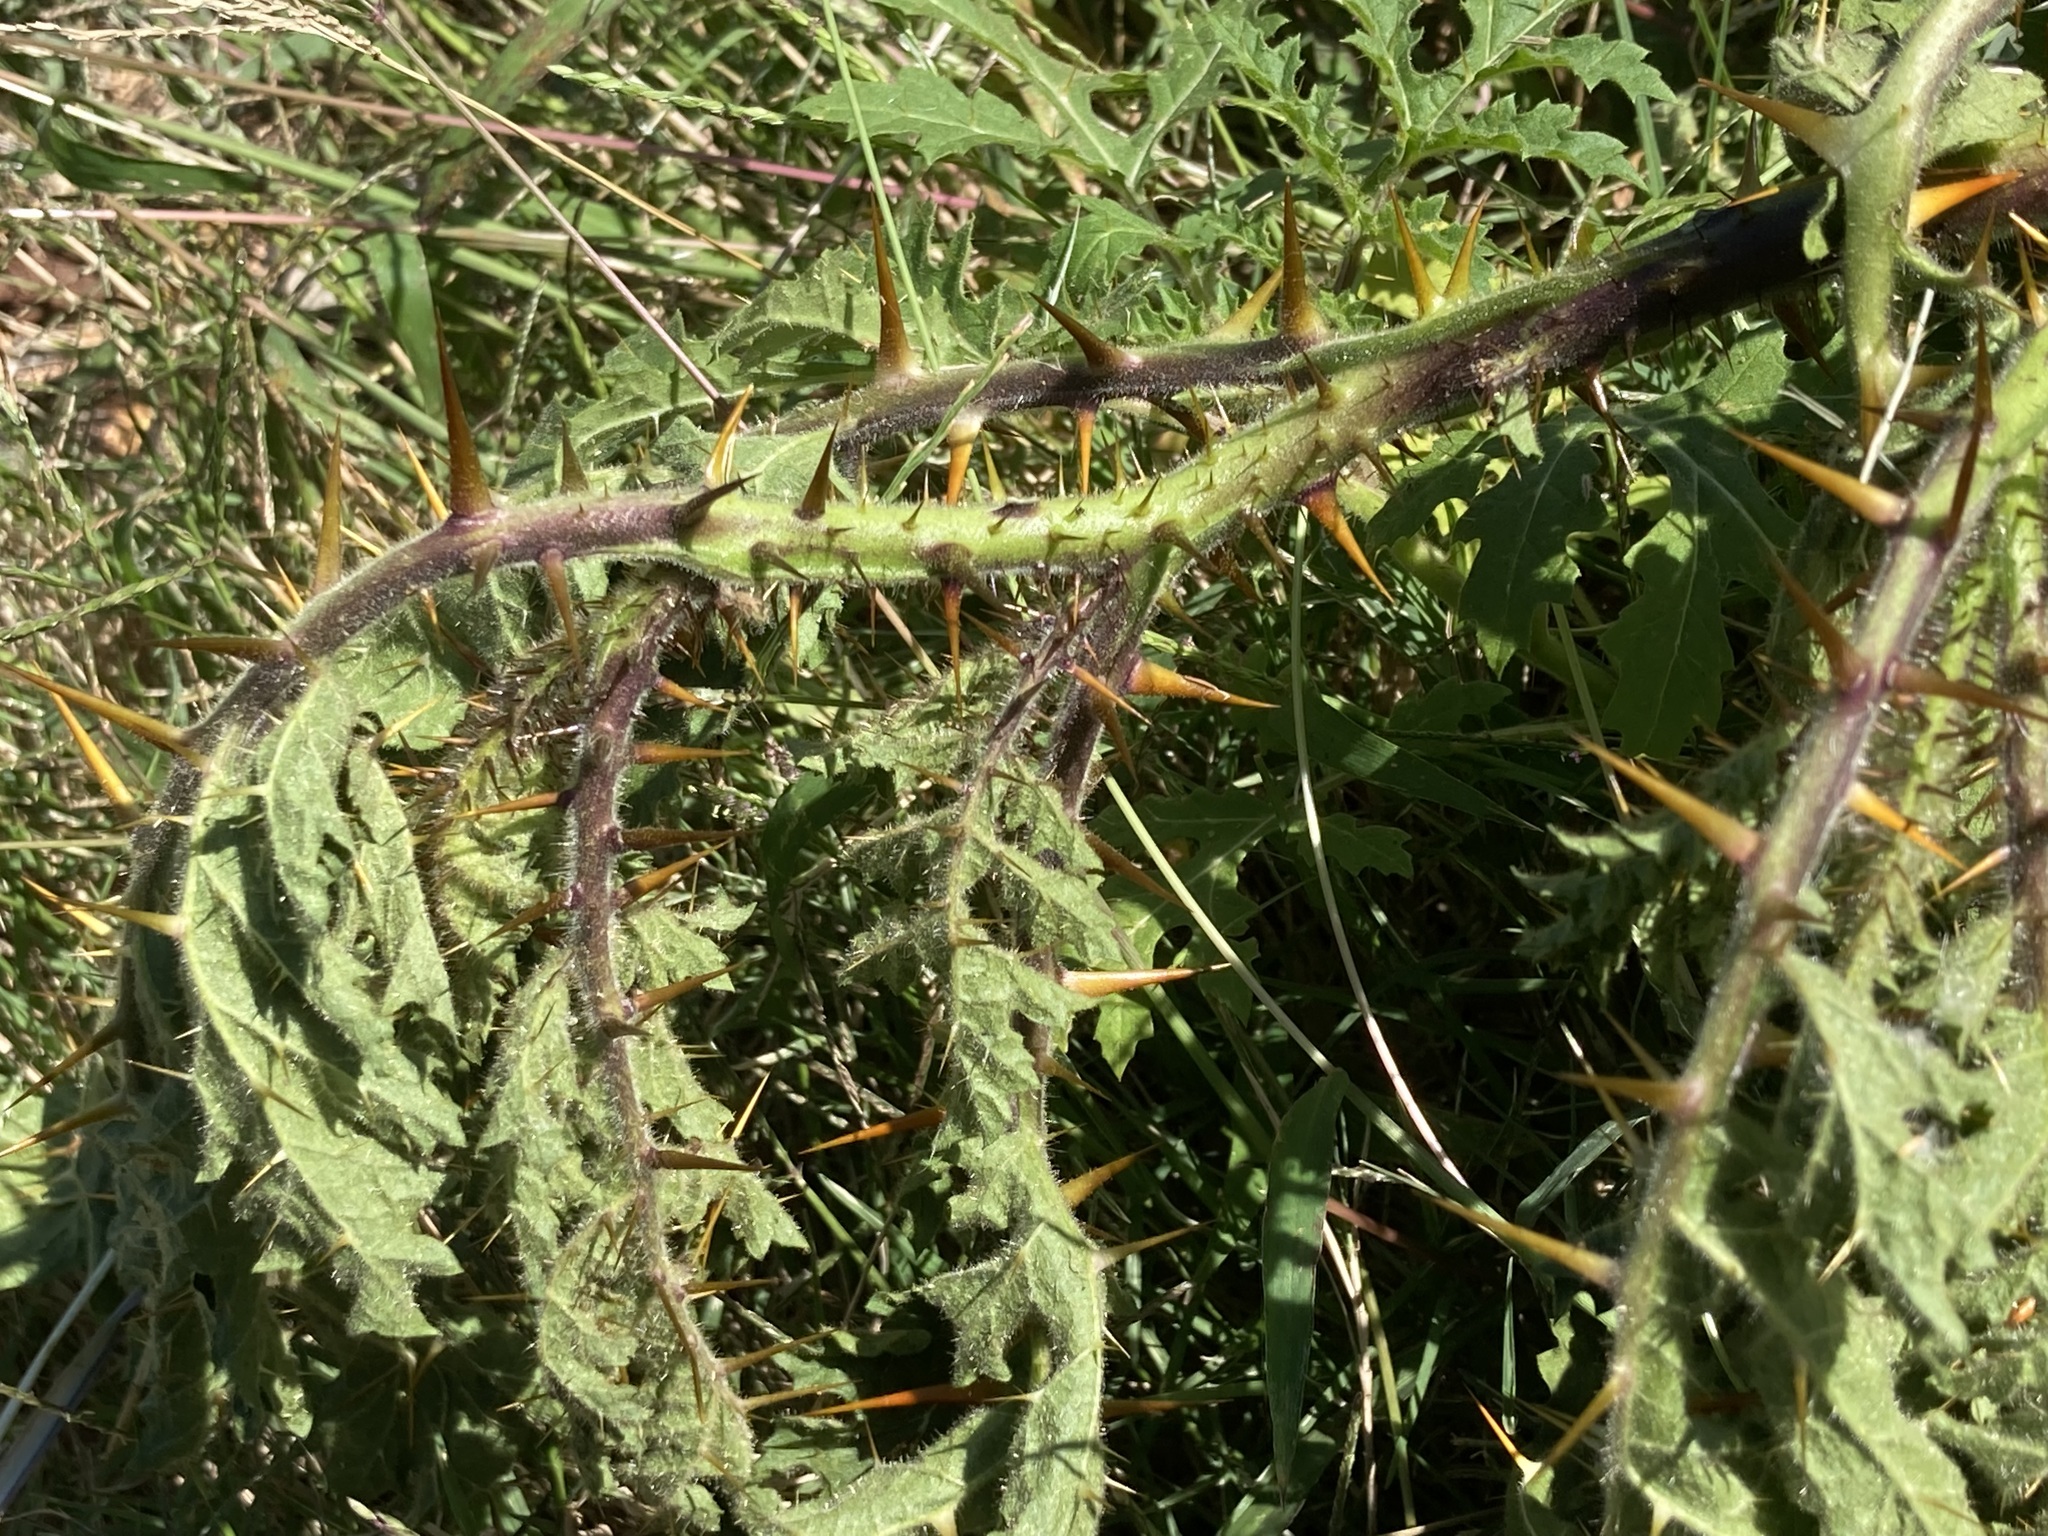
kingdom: Plantae
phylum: Tracheophyta
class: Magnoliopsida
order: Solanales
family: Solanaceae
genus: Solanum
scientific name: Solanum sisymbriifolium
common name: Red buffalo-bur
